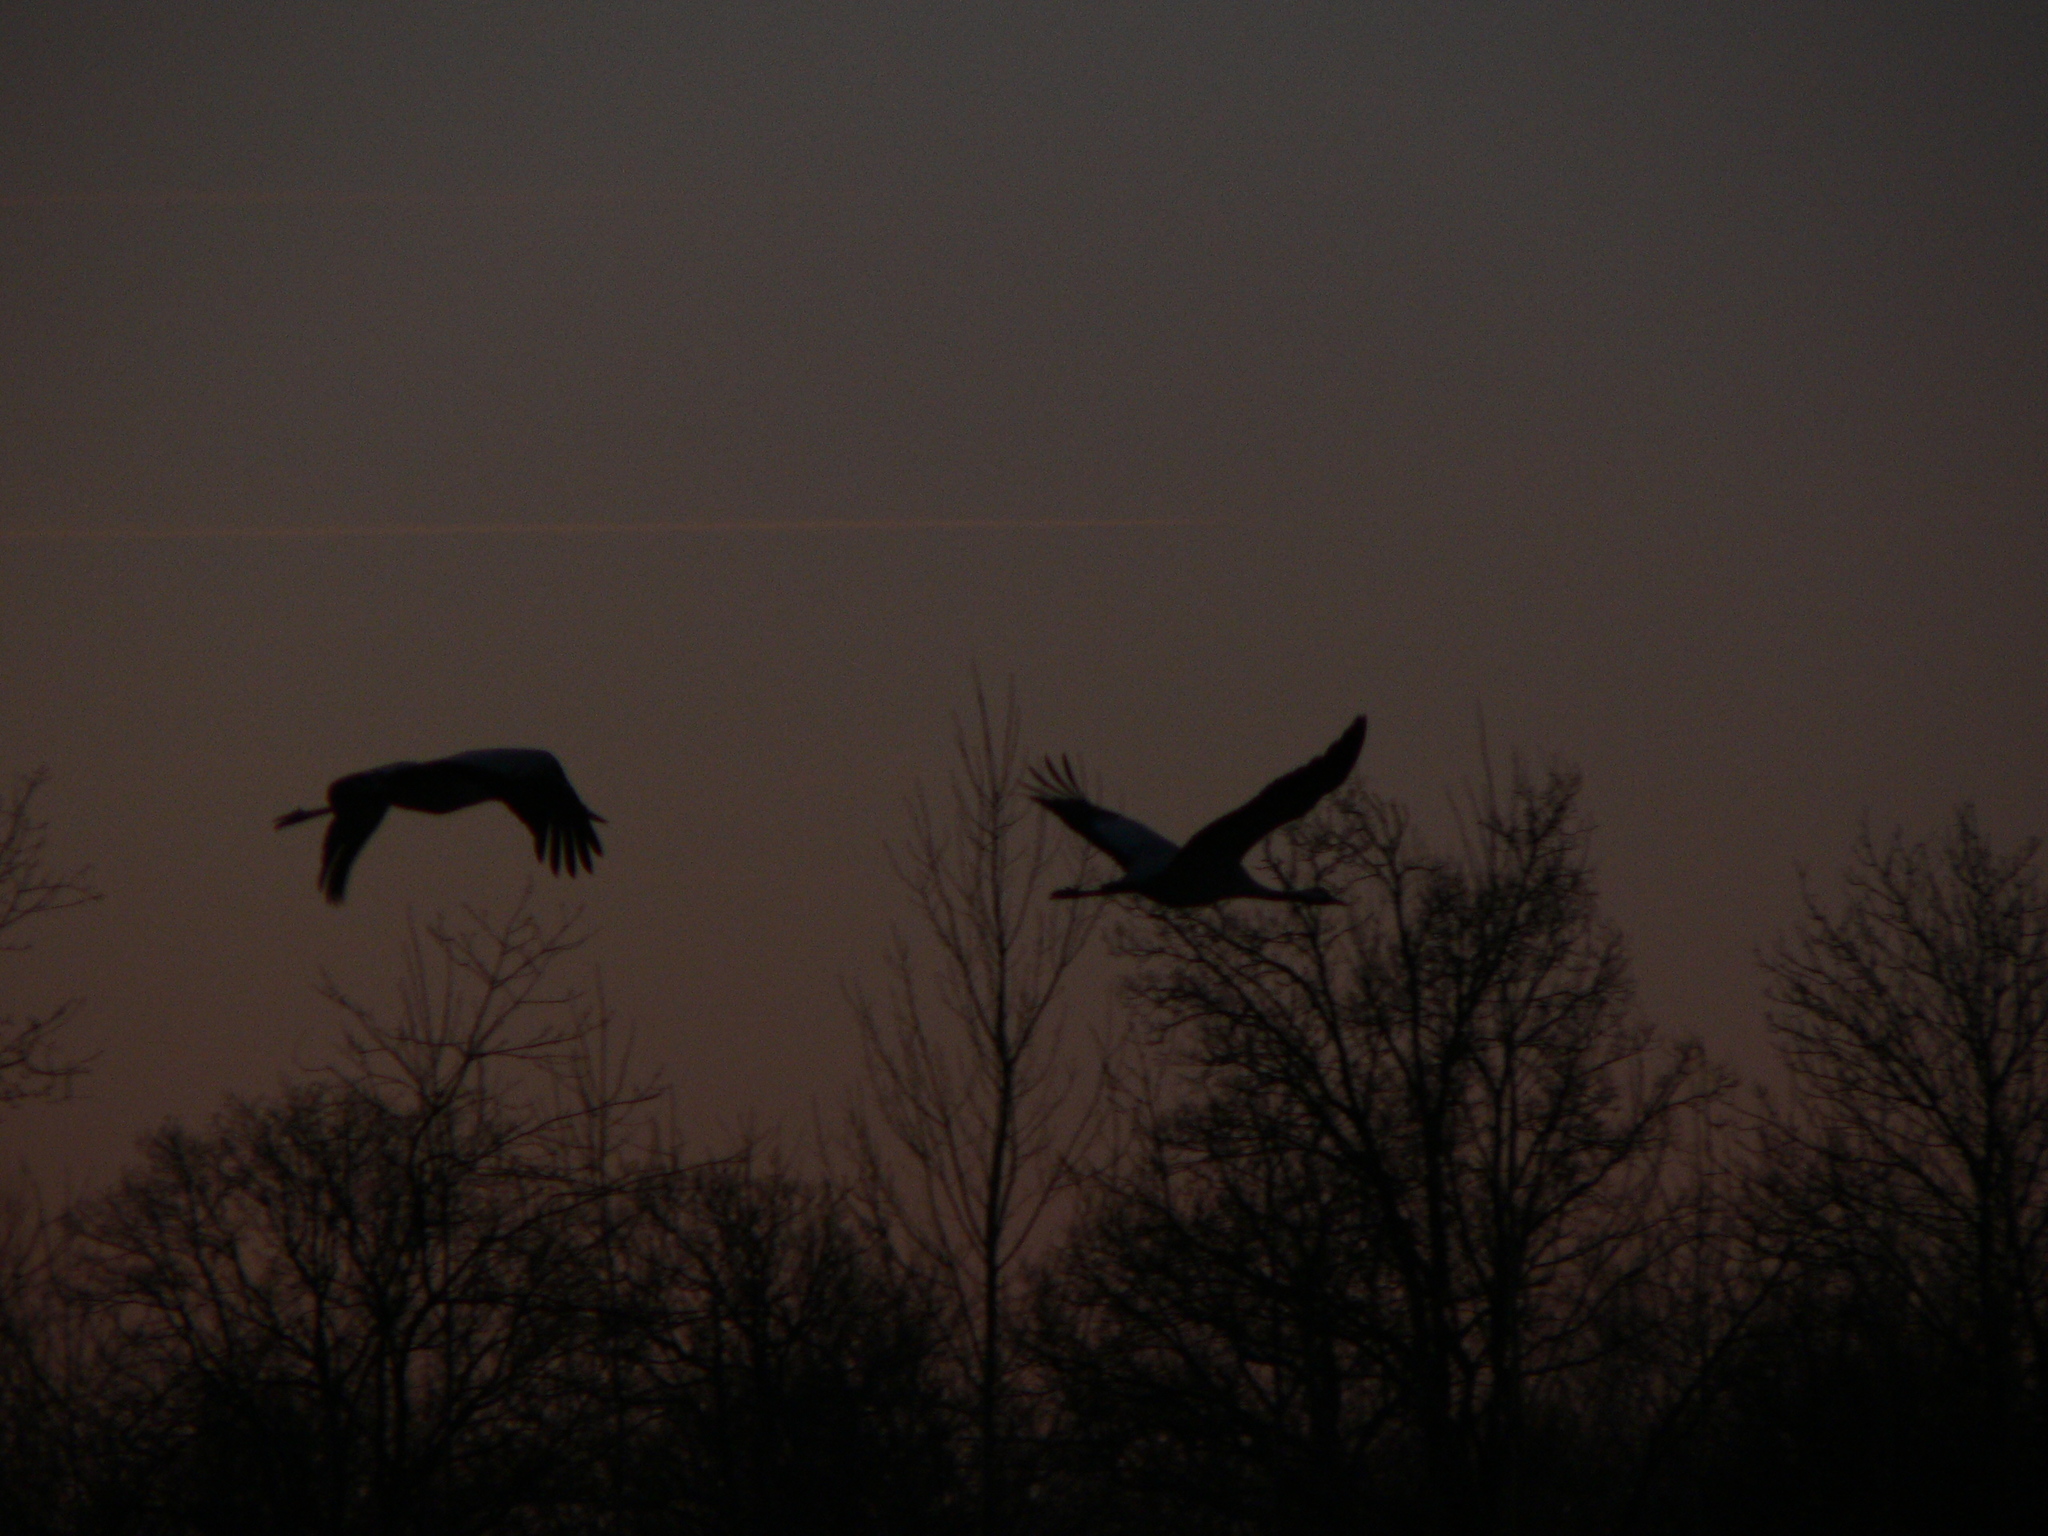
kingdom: Animalia
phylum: Chordata
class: Aves
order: Gruiformes
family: Gruidae
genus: Grus
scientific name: Grus grus
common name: Common crane
